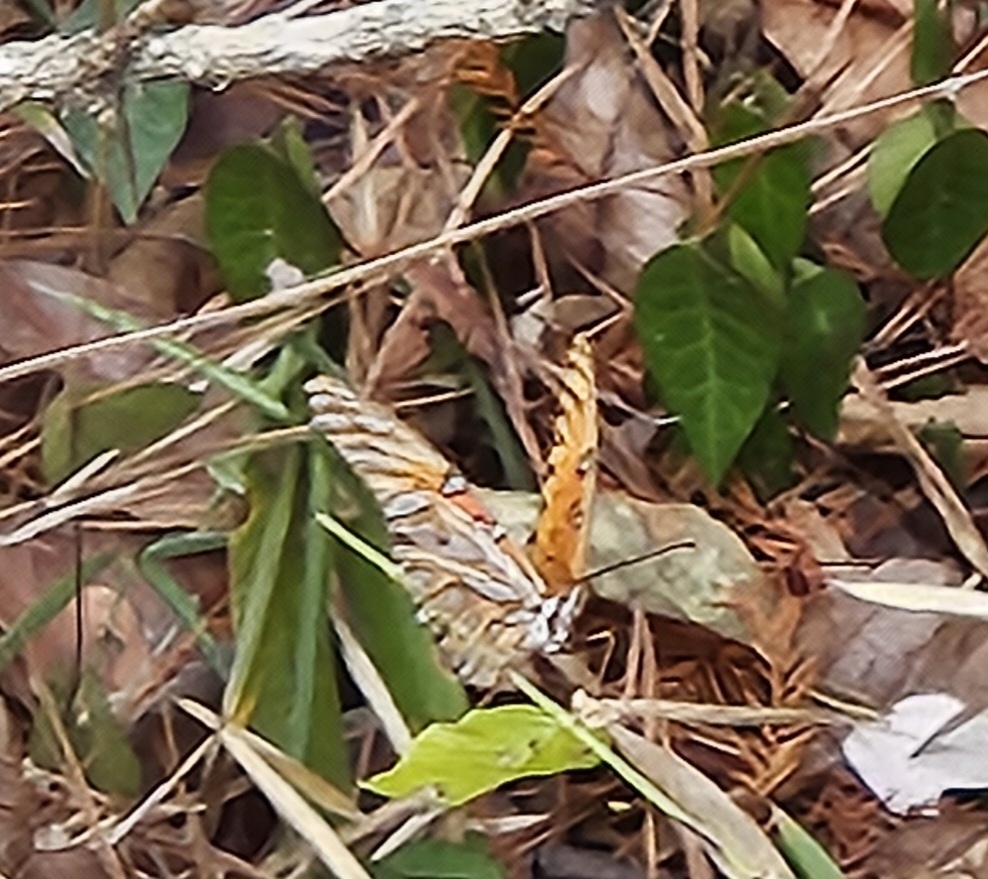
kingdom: Animalia
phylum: Arthropoda
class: Insecta
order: Lepidoptera
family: Nymphalidae
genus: Dione
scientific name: Dione vanillae
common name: Gulf fritillary
